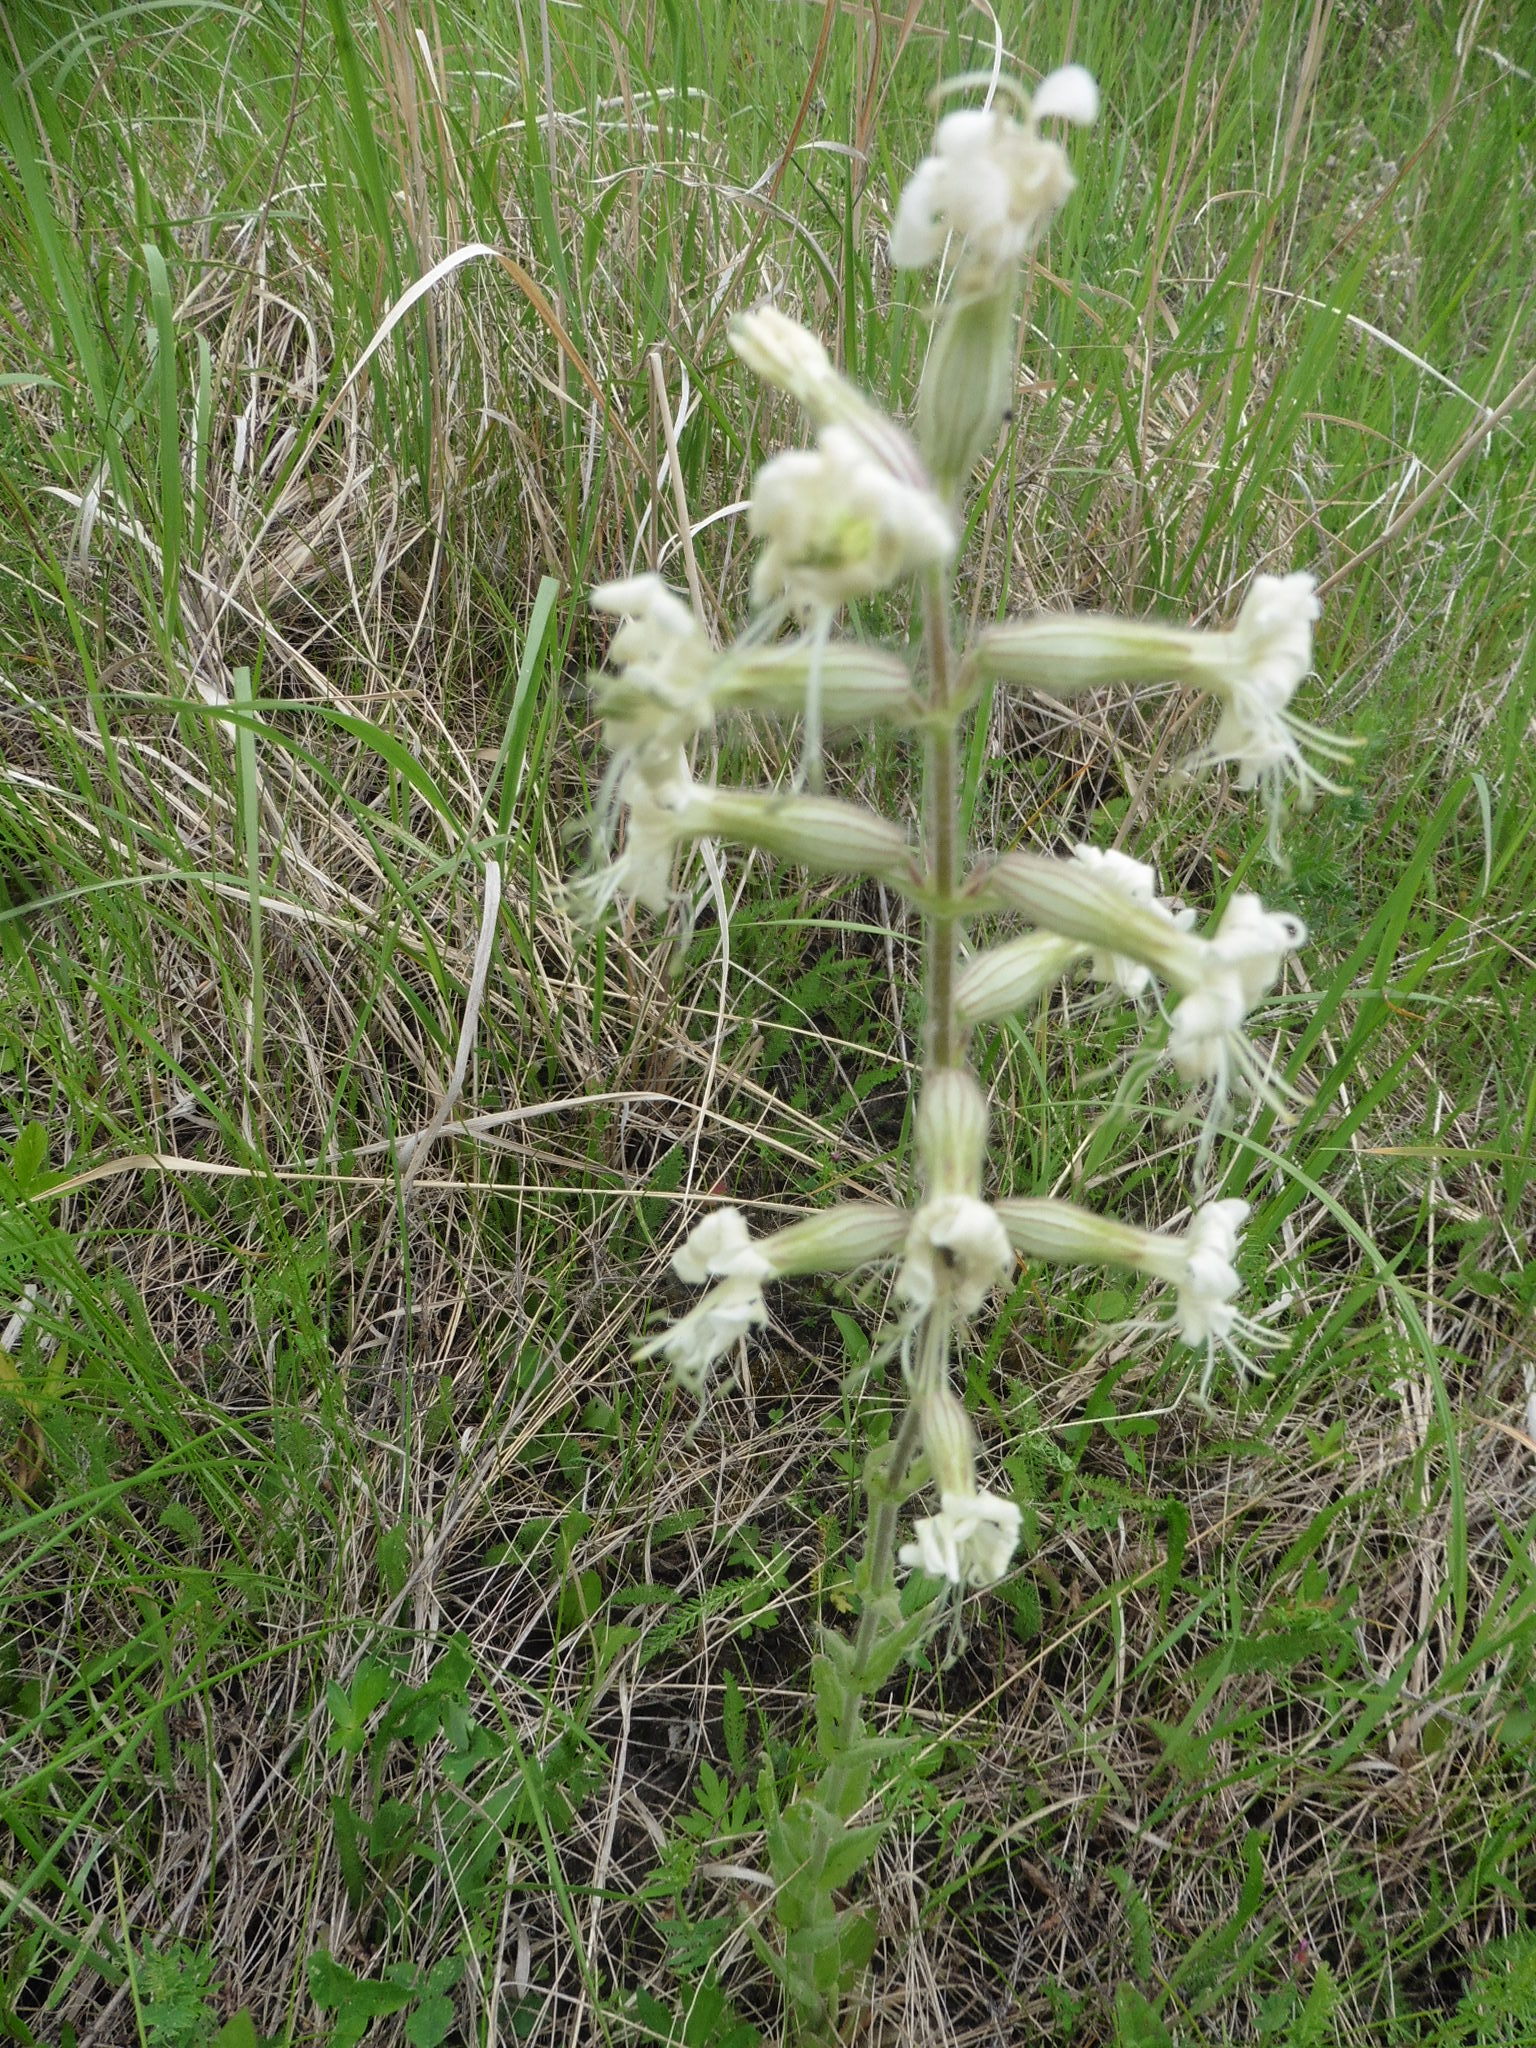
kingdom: Plantae
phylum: Tracheophyta
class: Magnoliopsida
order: Caryophyllales
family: Caryophyllaceae
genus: Silene
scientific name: Silene viscosa
